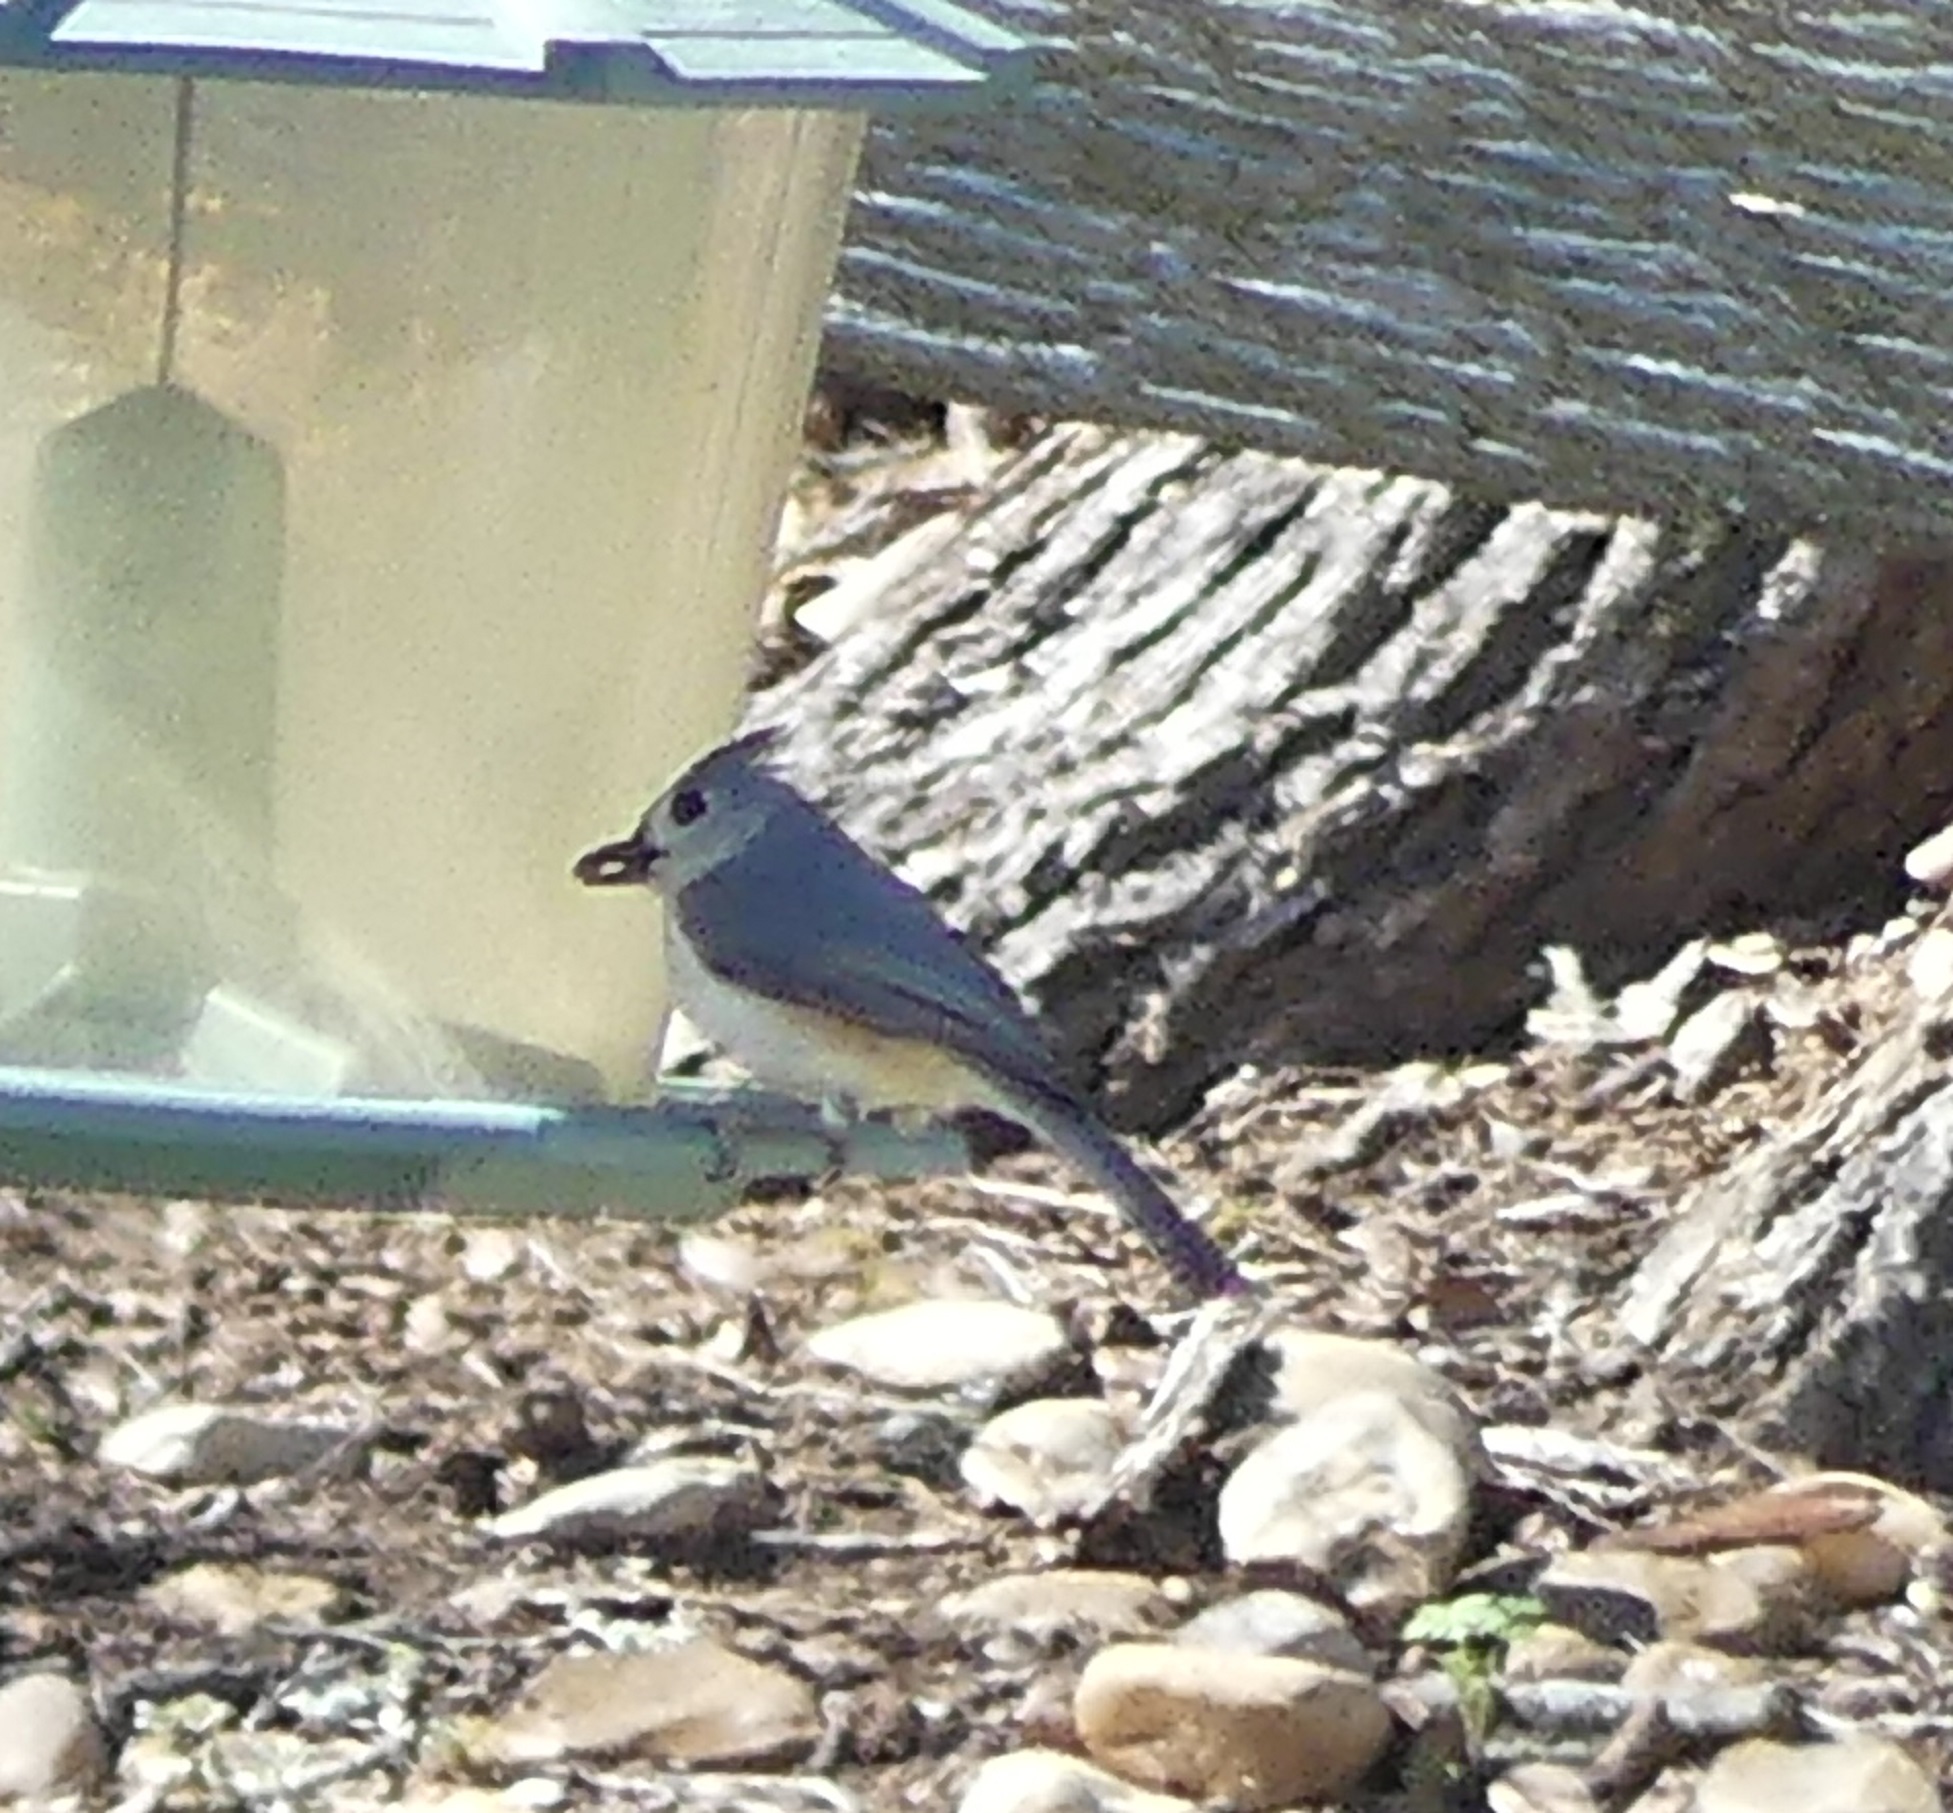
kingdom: Animalia
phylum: Chordata
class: Aves
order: Passeriformes
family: Paridae
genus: Baeolophus
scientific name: Baeolophus bicolor
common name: Tufted titmouse
